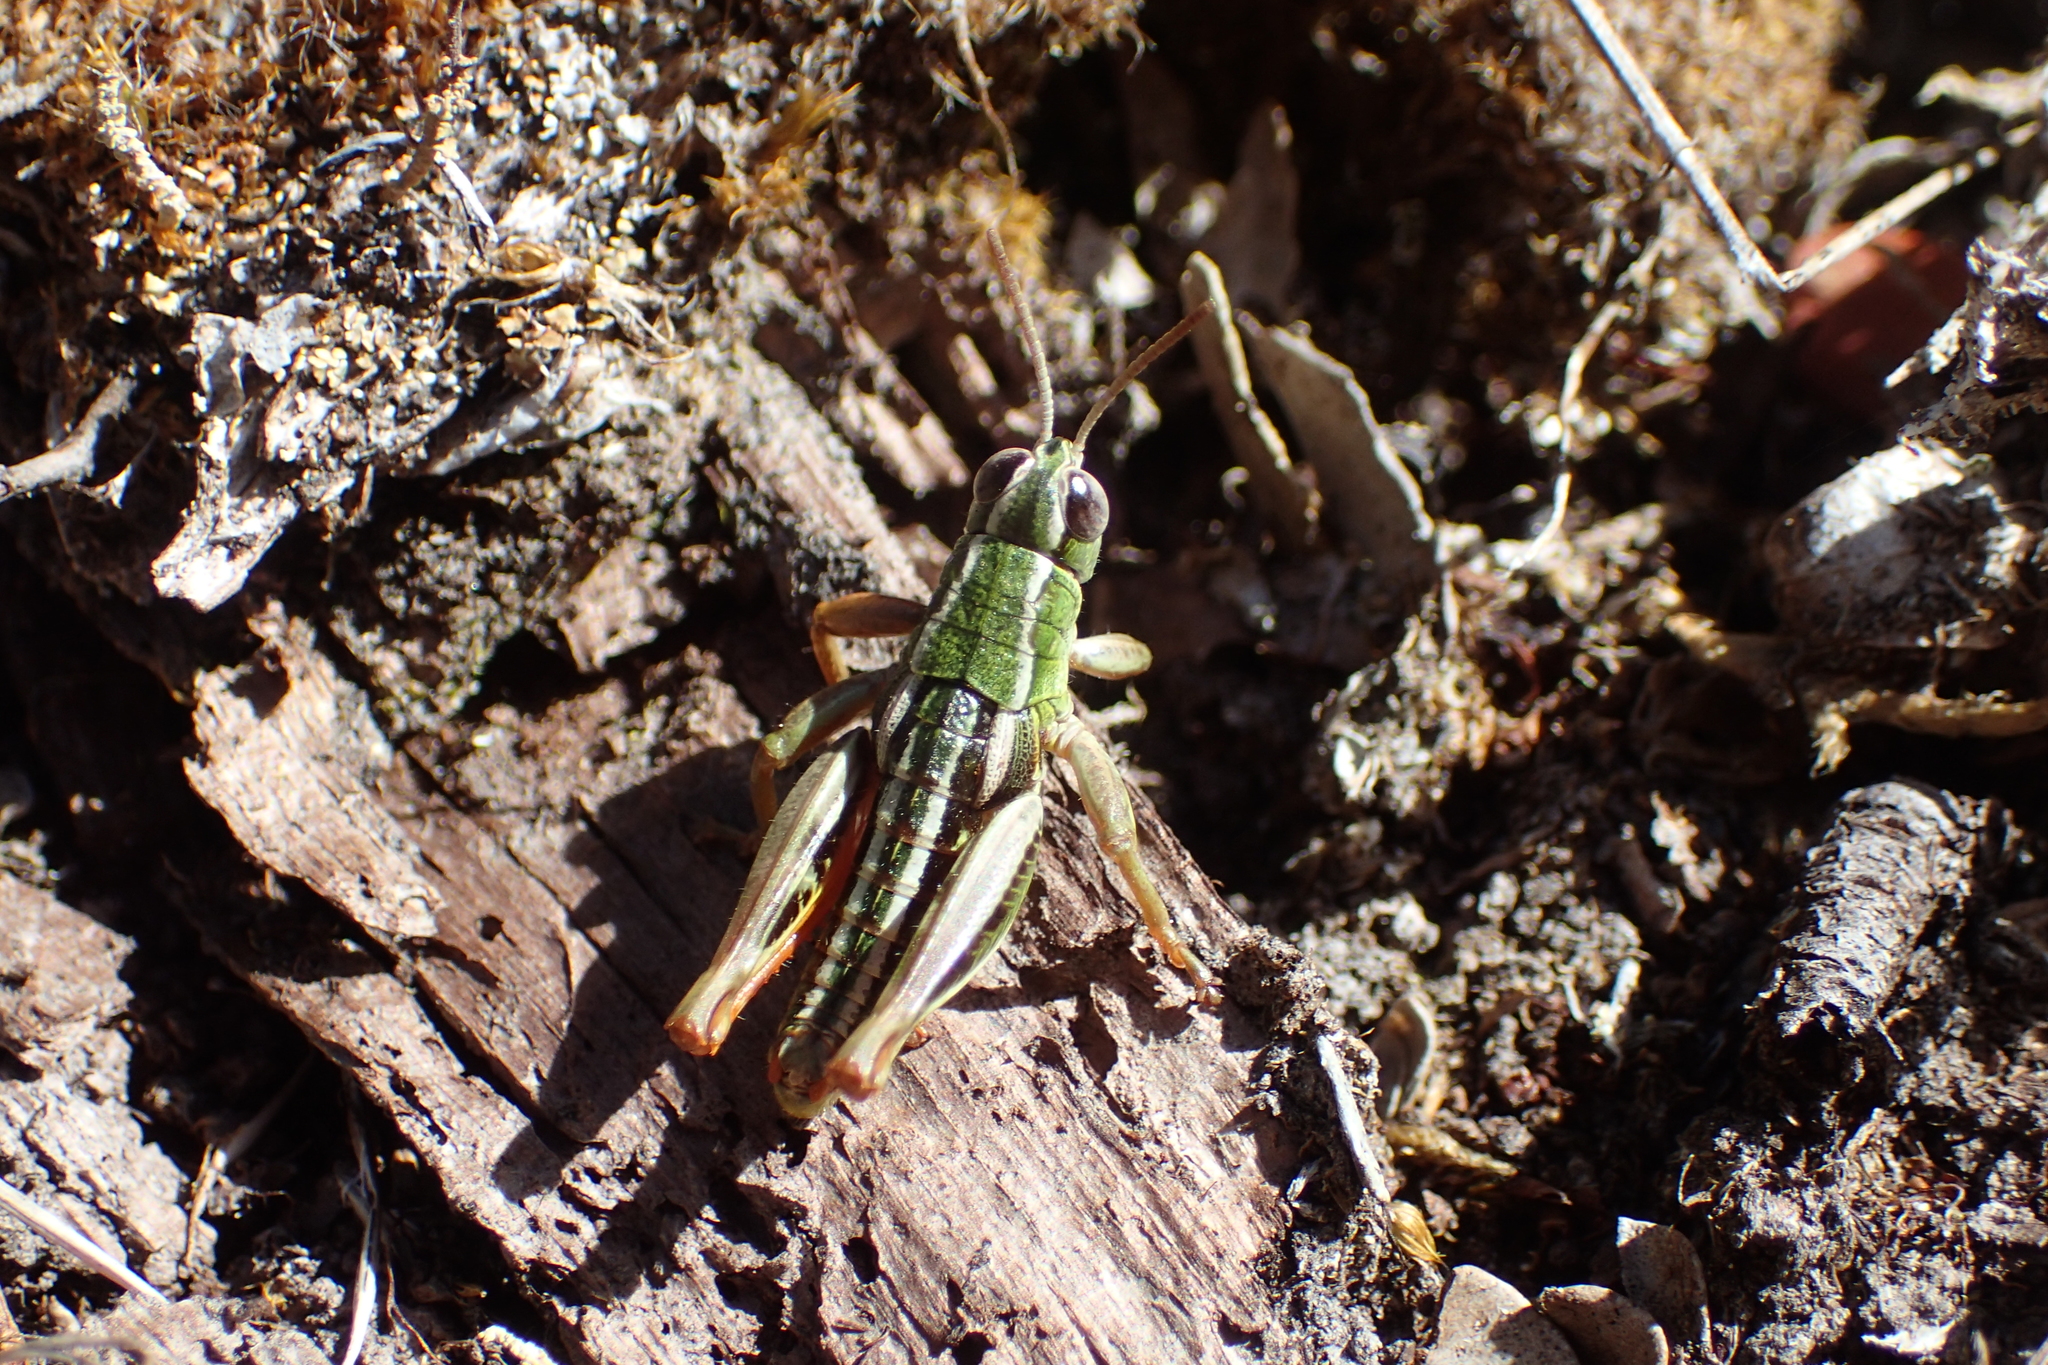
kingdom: Animalia
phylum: Arthropoda
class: Insecta
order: Orthoptera
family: Acrididae
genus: Sigaus
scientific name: Sigaus
